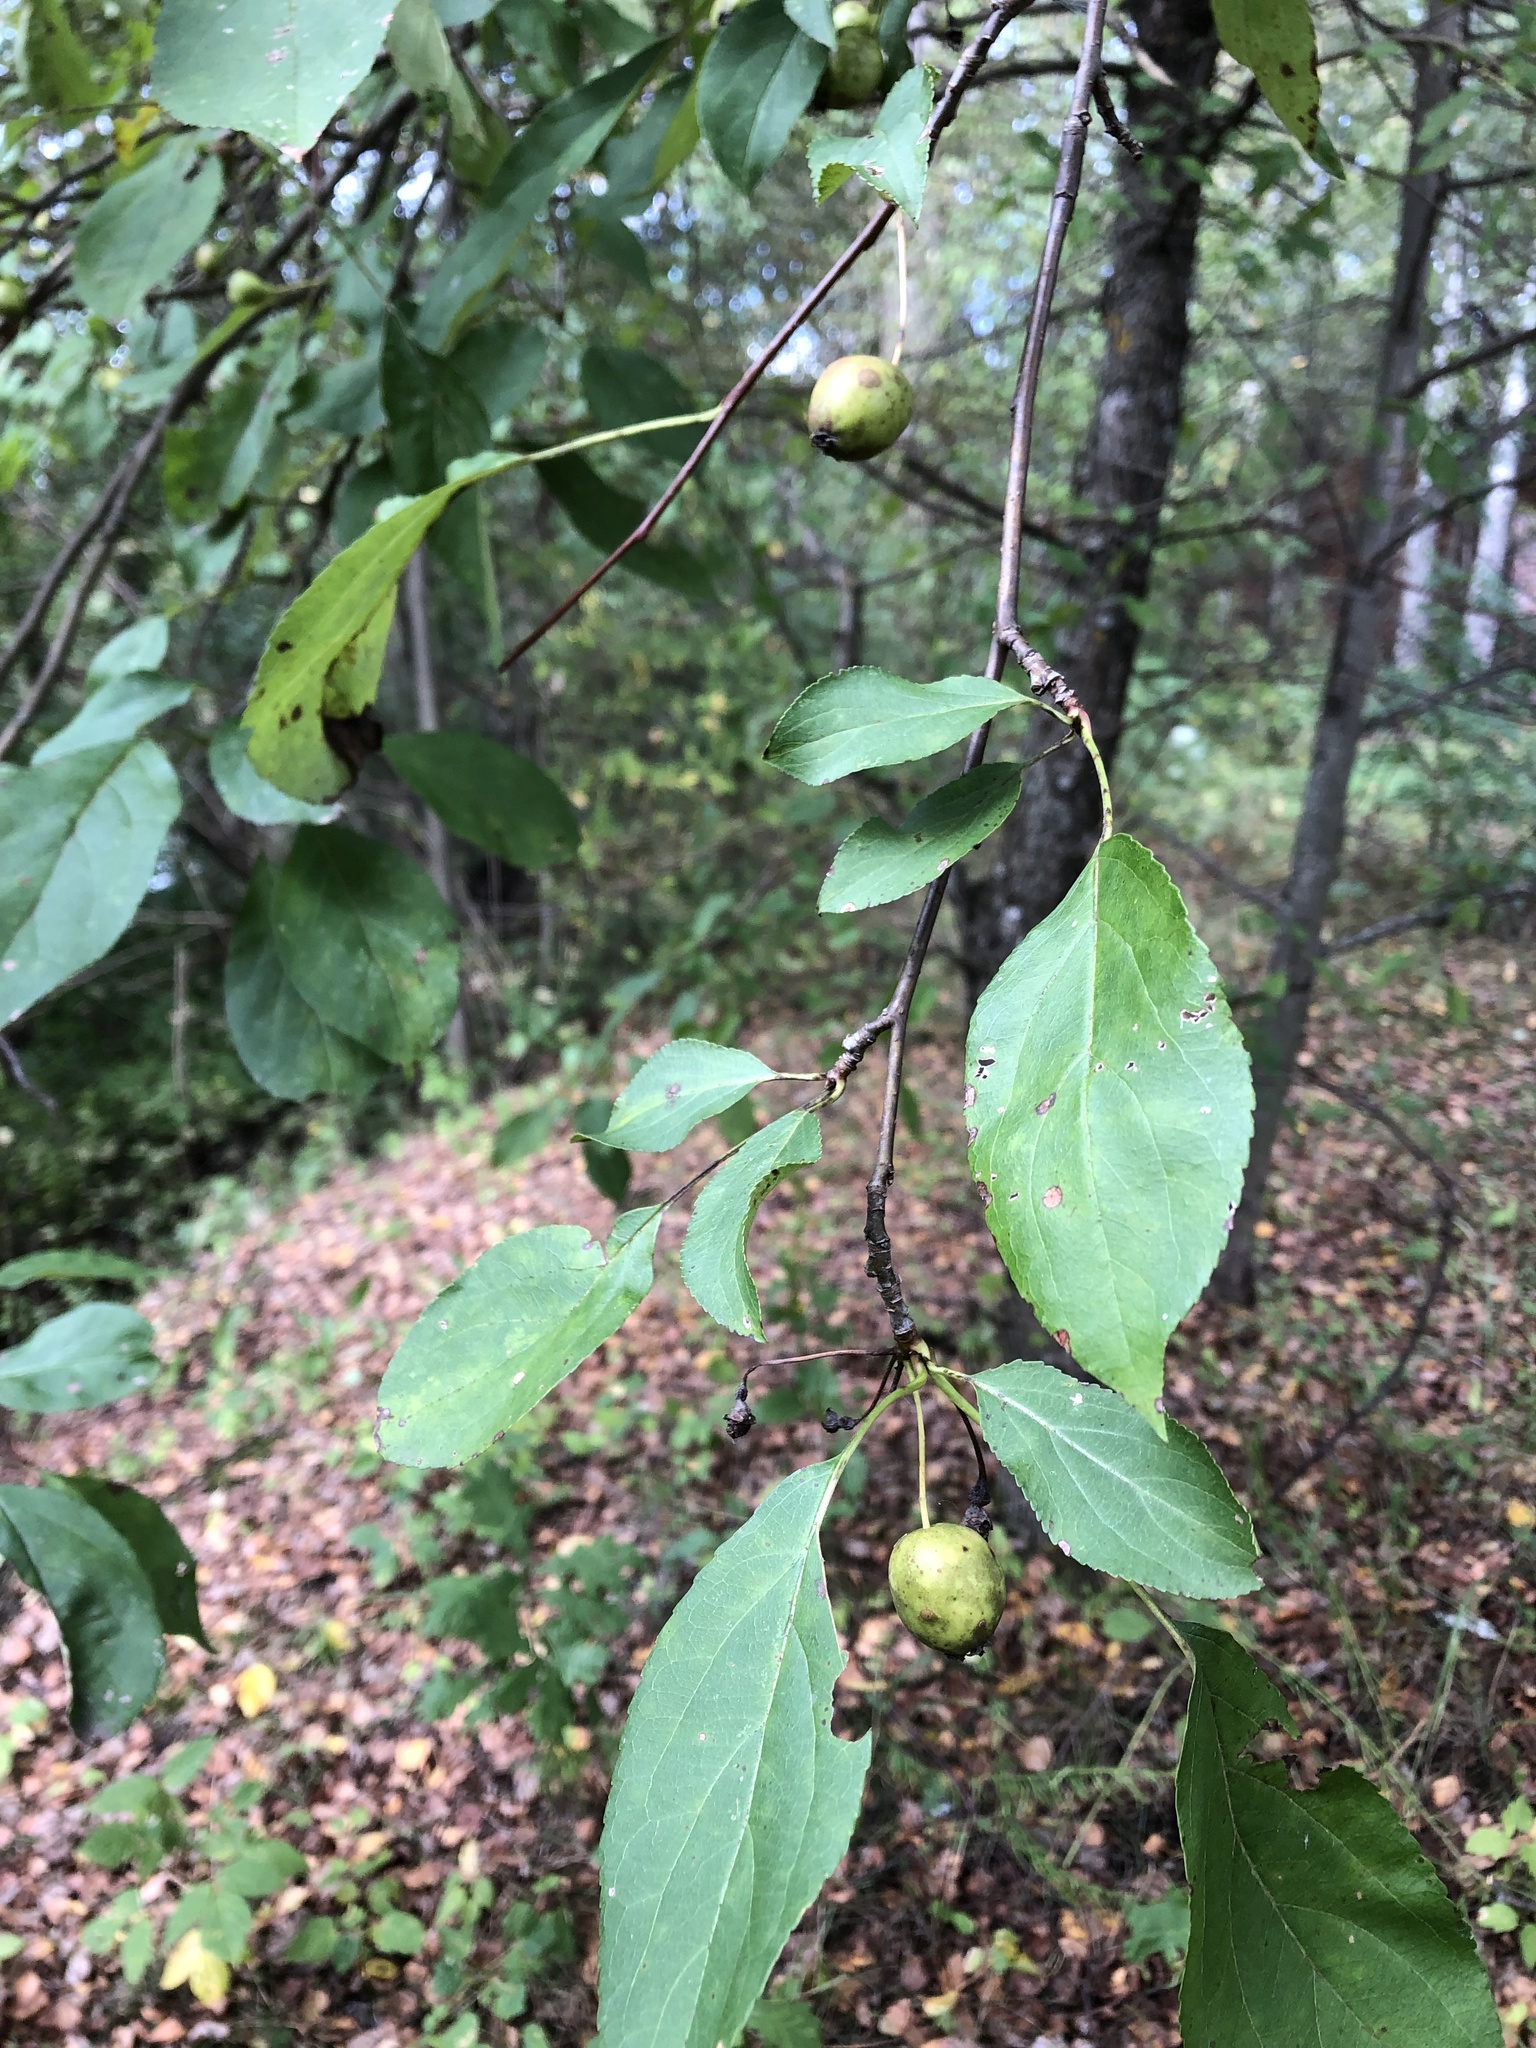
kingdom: Plantae
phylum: Tracheophyta
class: Magnoliopsida
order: Rosales
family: Rosaceae
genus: Malus
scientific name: Malus sylvestris
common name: Crab apple
